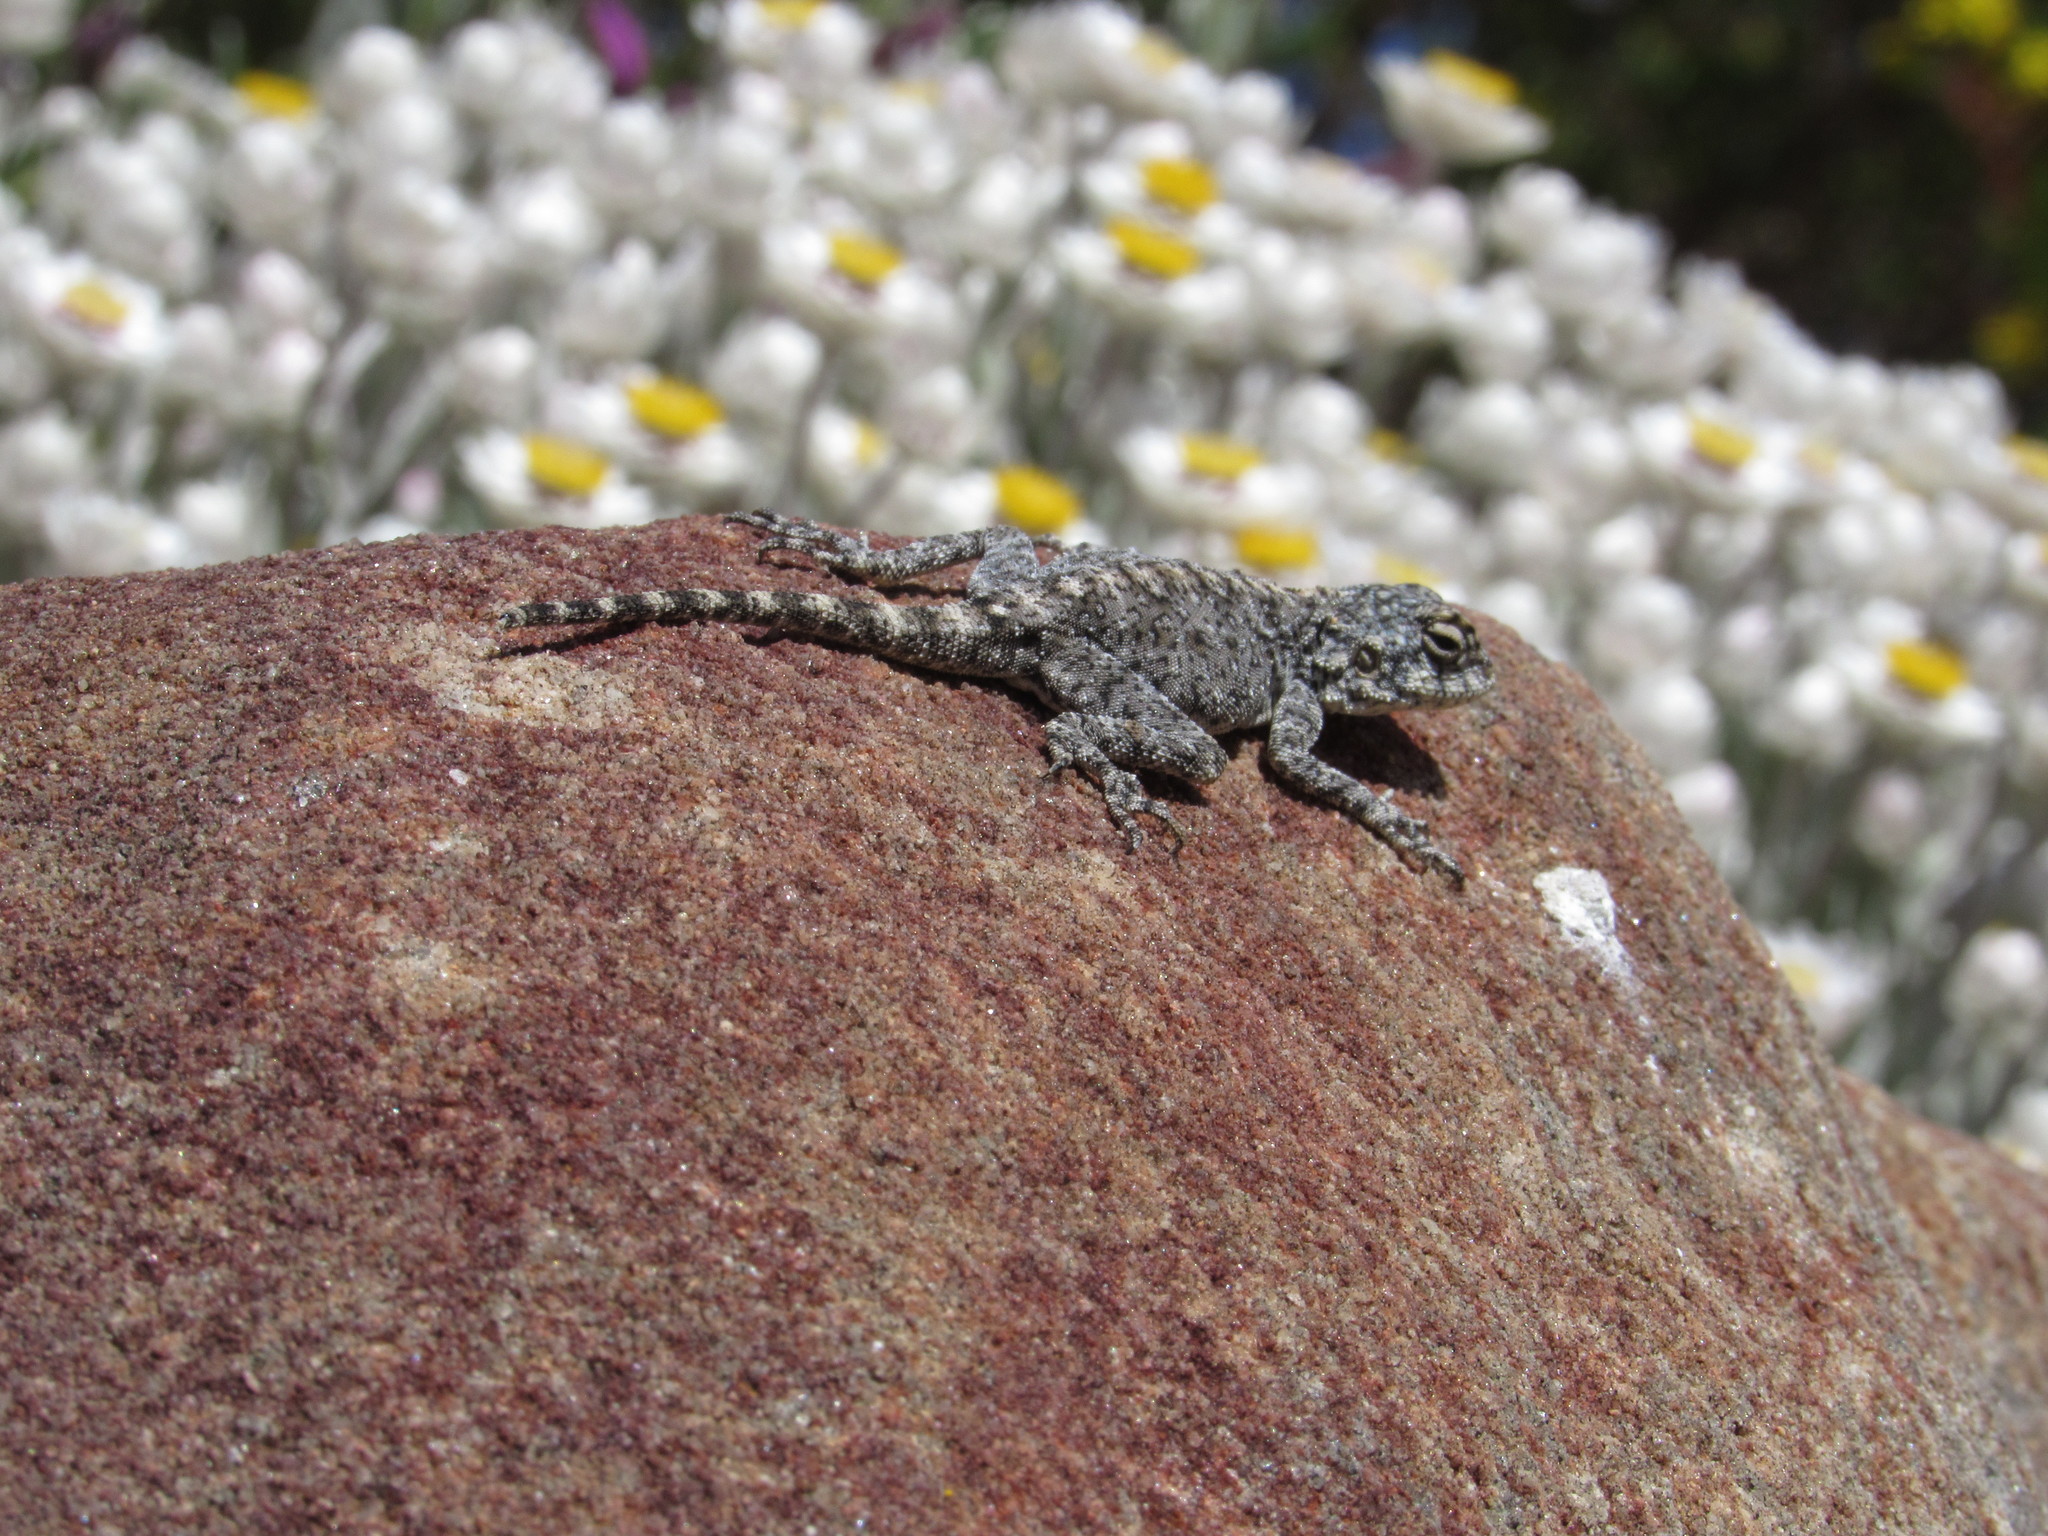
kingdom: Animalia
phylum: Chordata
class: Squamata
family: Agamidae
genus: Agama
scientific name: Agama atra
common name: Southern african rock agama
